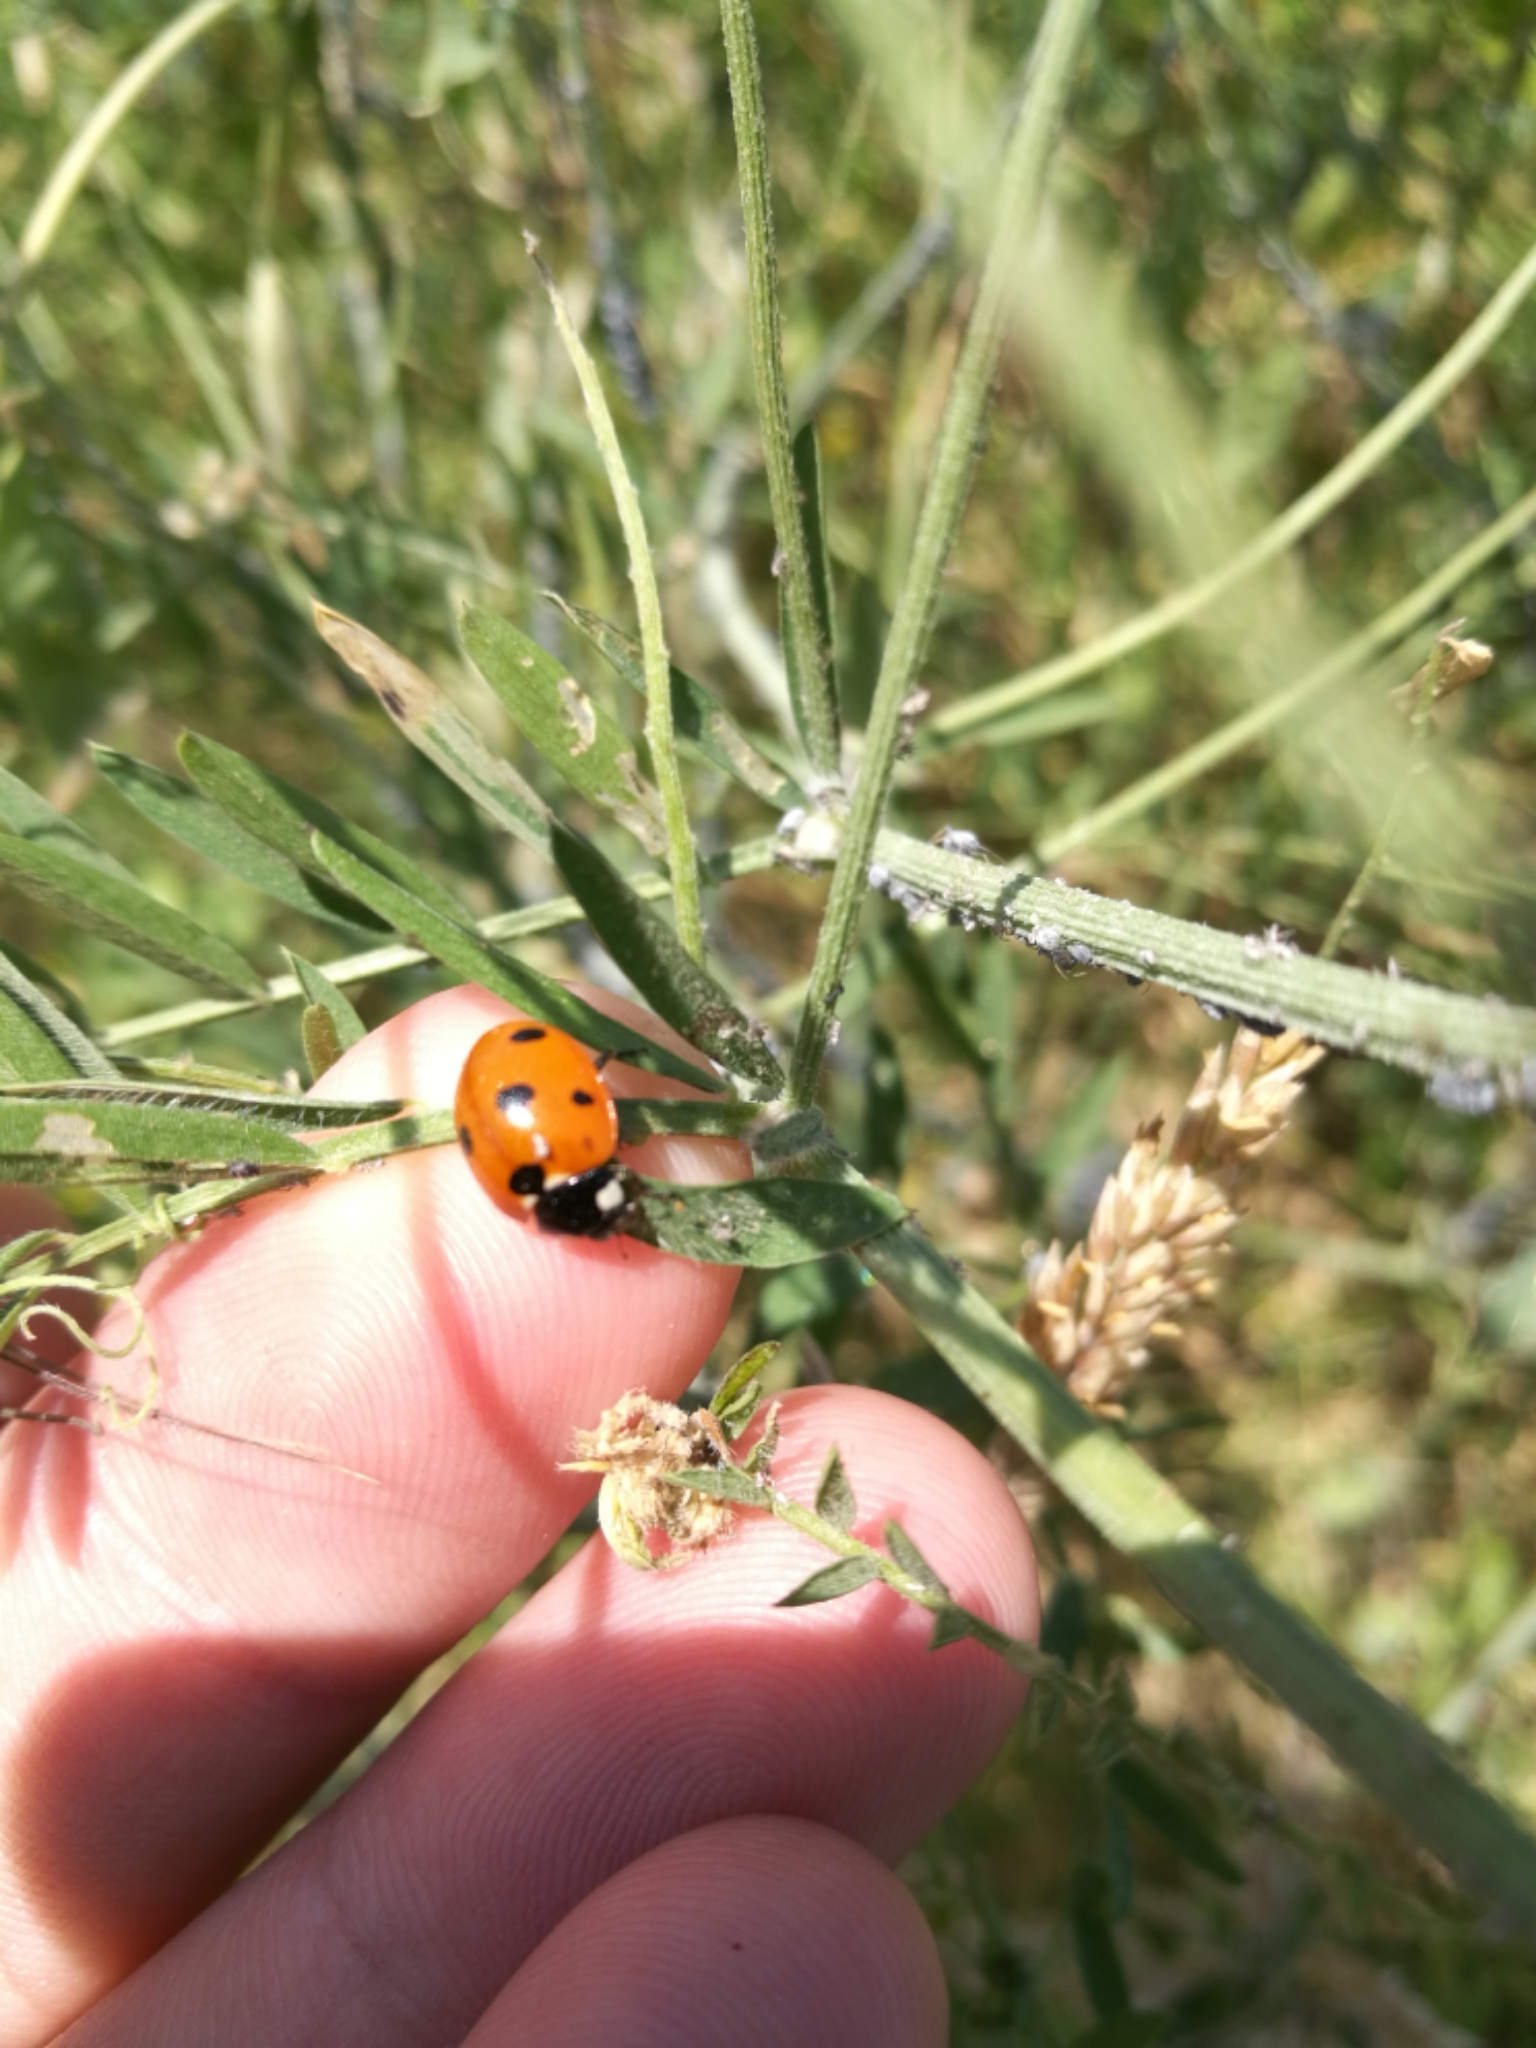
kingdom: Animalia
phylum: Arthropoda
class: Insecta
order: Coleoptera
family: Coccinellidae
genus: Coccinella
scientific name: Coccinella septempunctata
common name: Sevenspotted lady beetle
